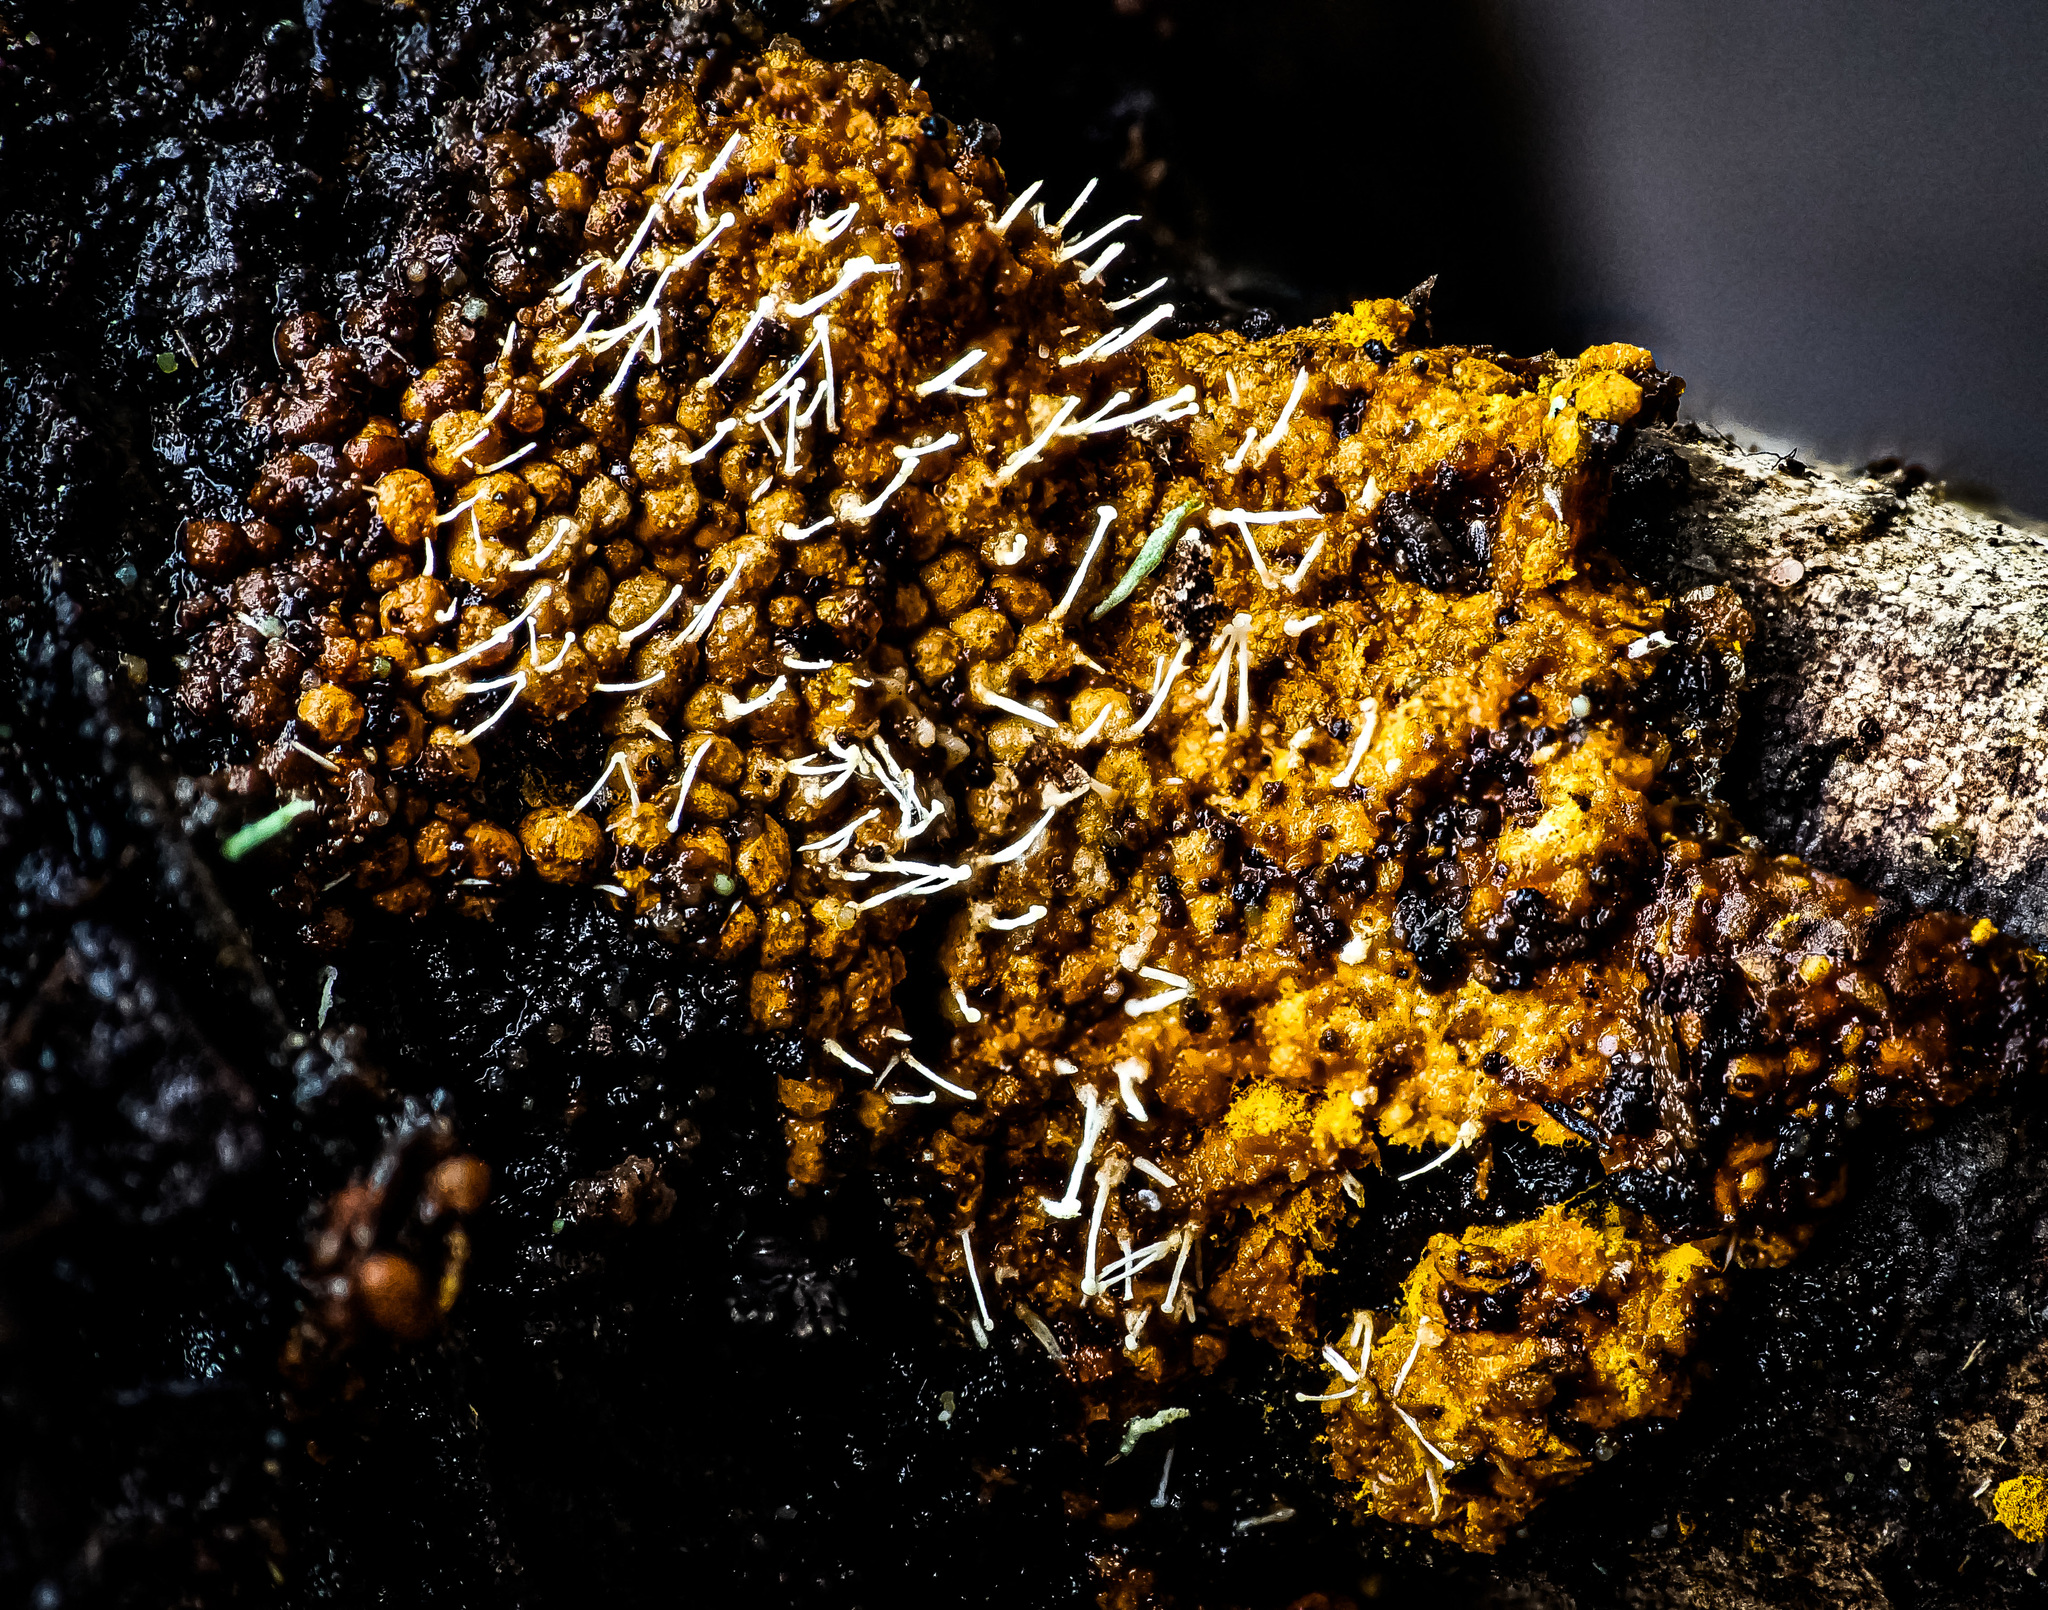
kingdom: Fungi
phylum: Ascomycota
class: Sordariomycetes
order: Hypocreales
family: Ophiocordycipitaceae
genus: Polycephalomyces
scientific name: Polycephalomyces tomentosus
